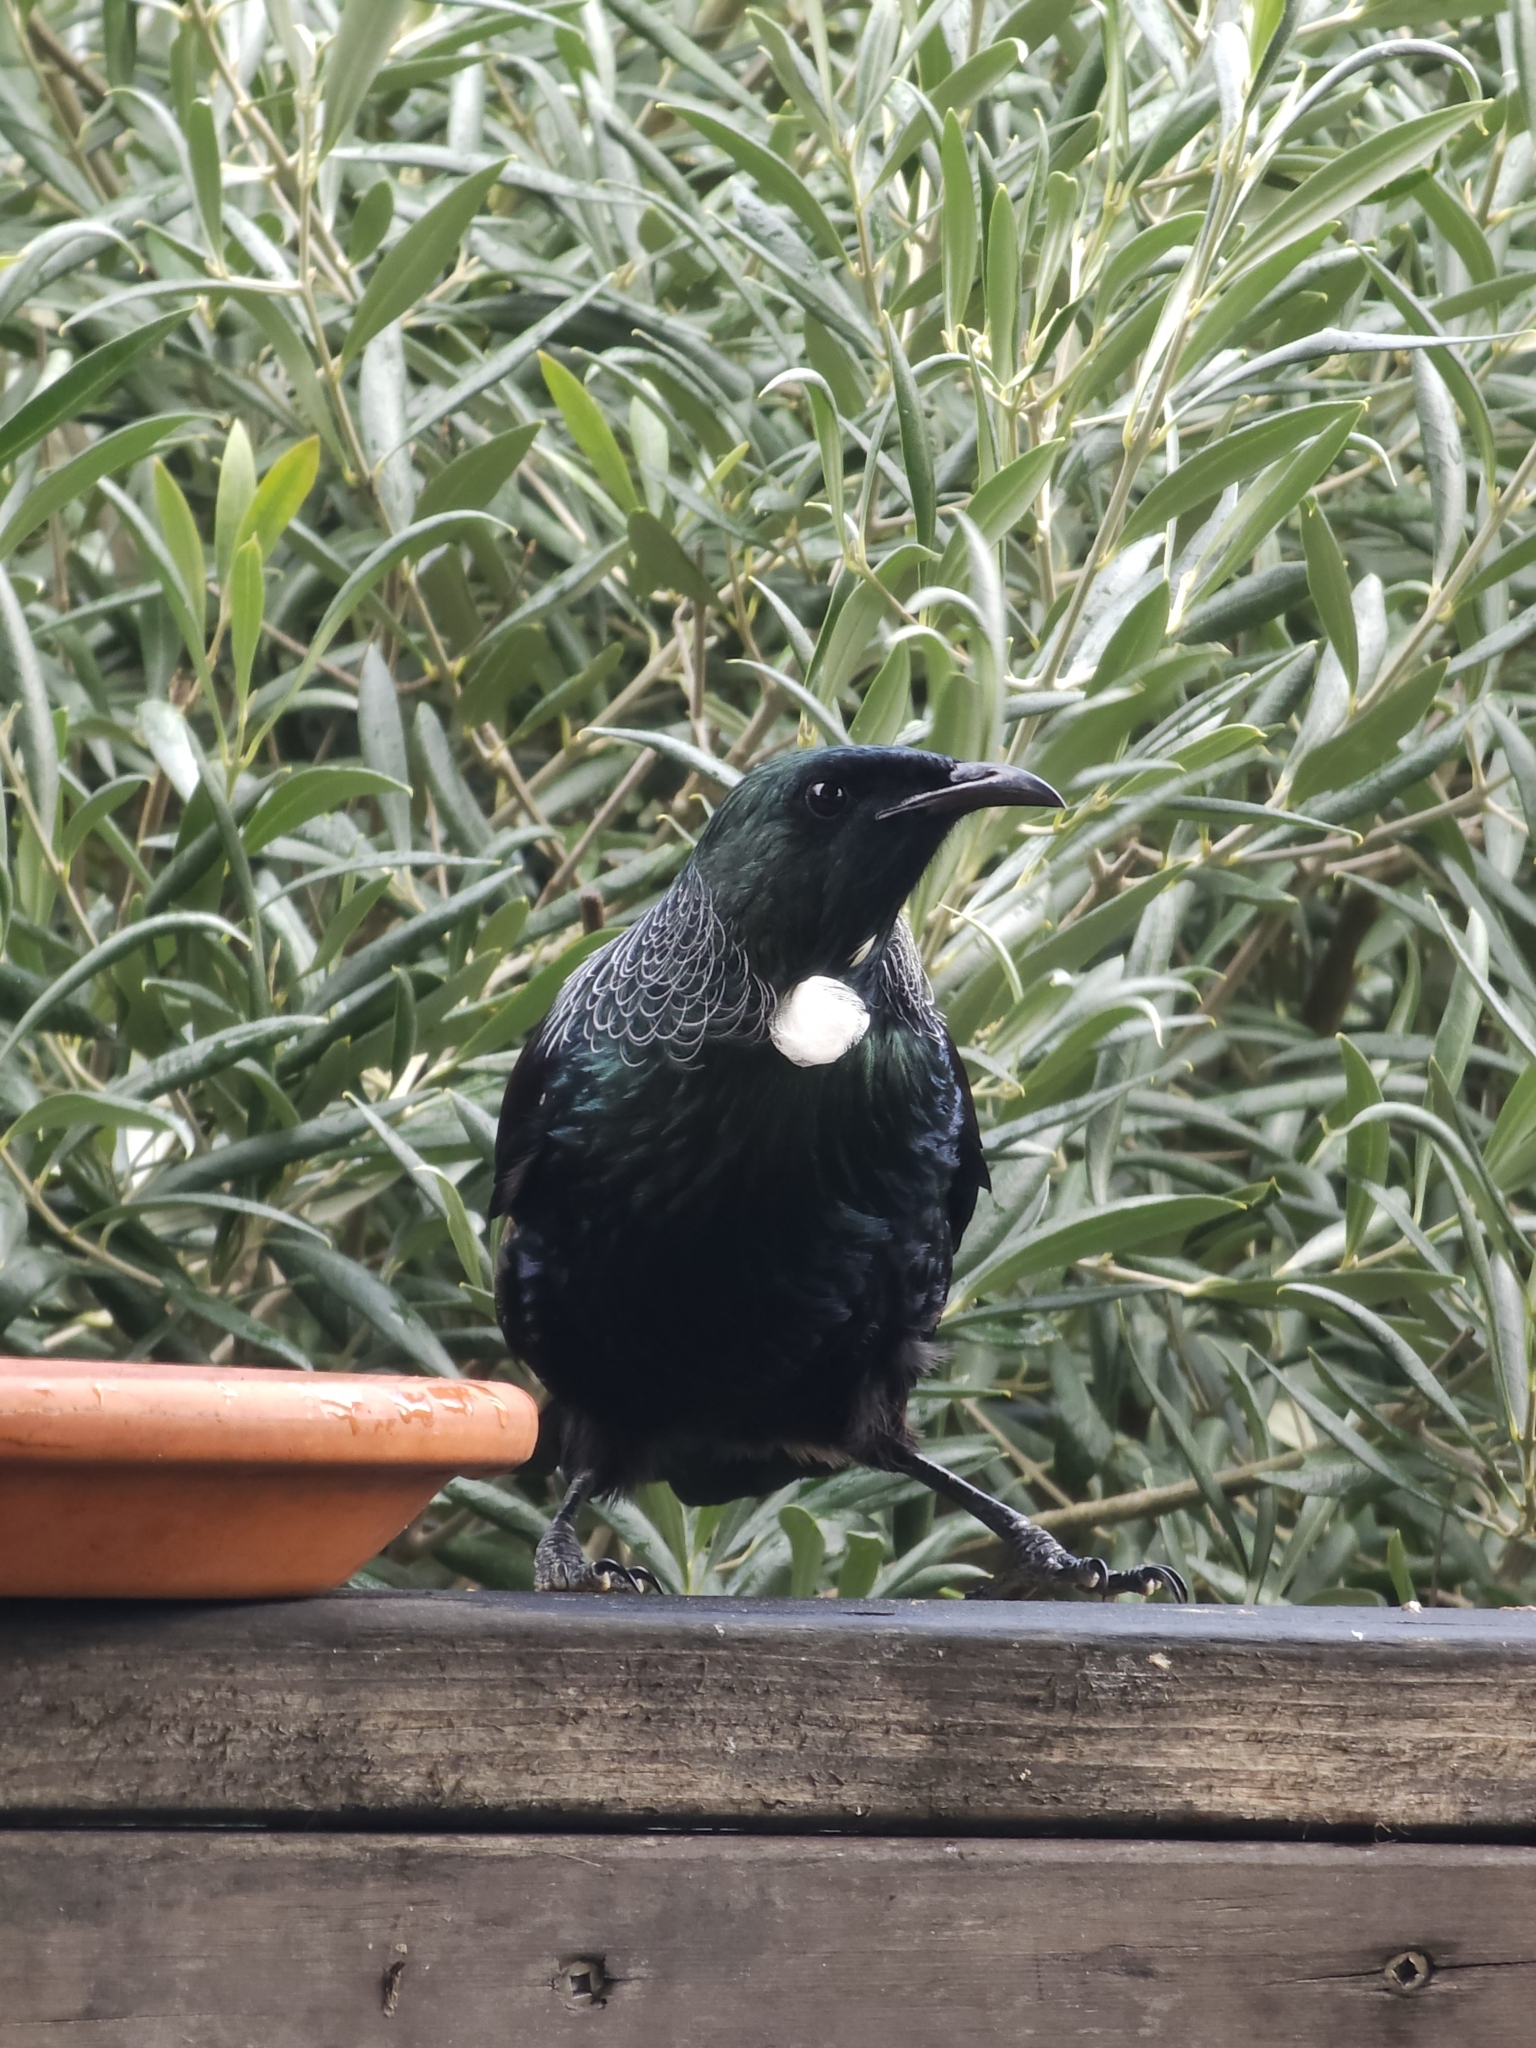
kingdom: Animalia
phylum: Chordata
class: Aves
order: Passeriformes
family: Meliphagidae
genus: Prosthemadera
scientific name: Prosthemadera novaeseelandiae
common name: Tui
